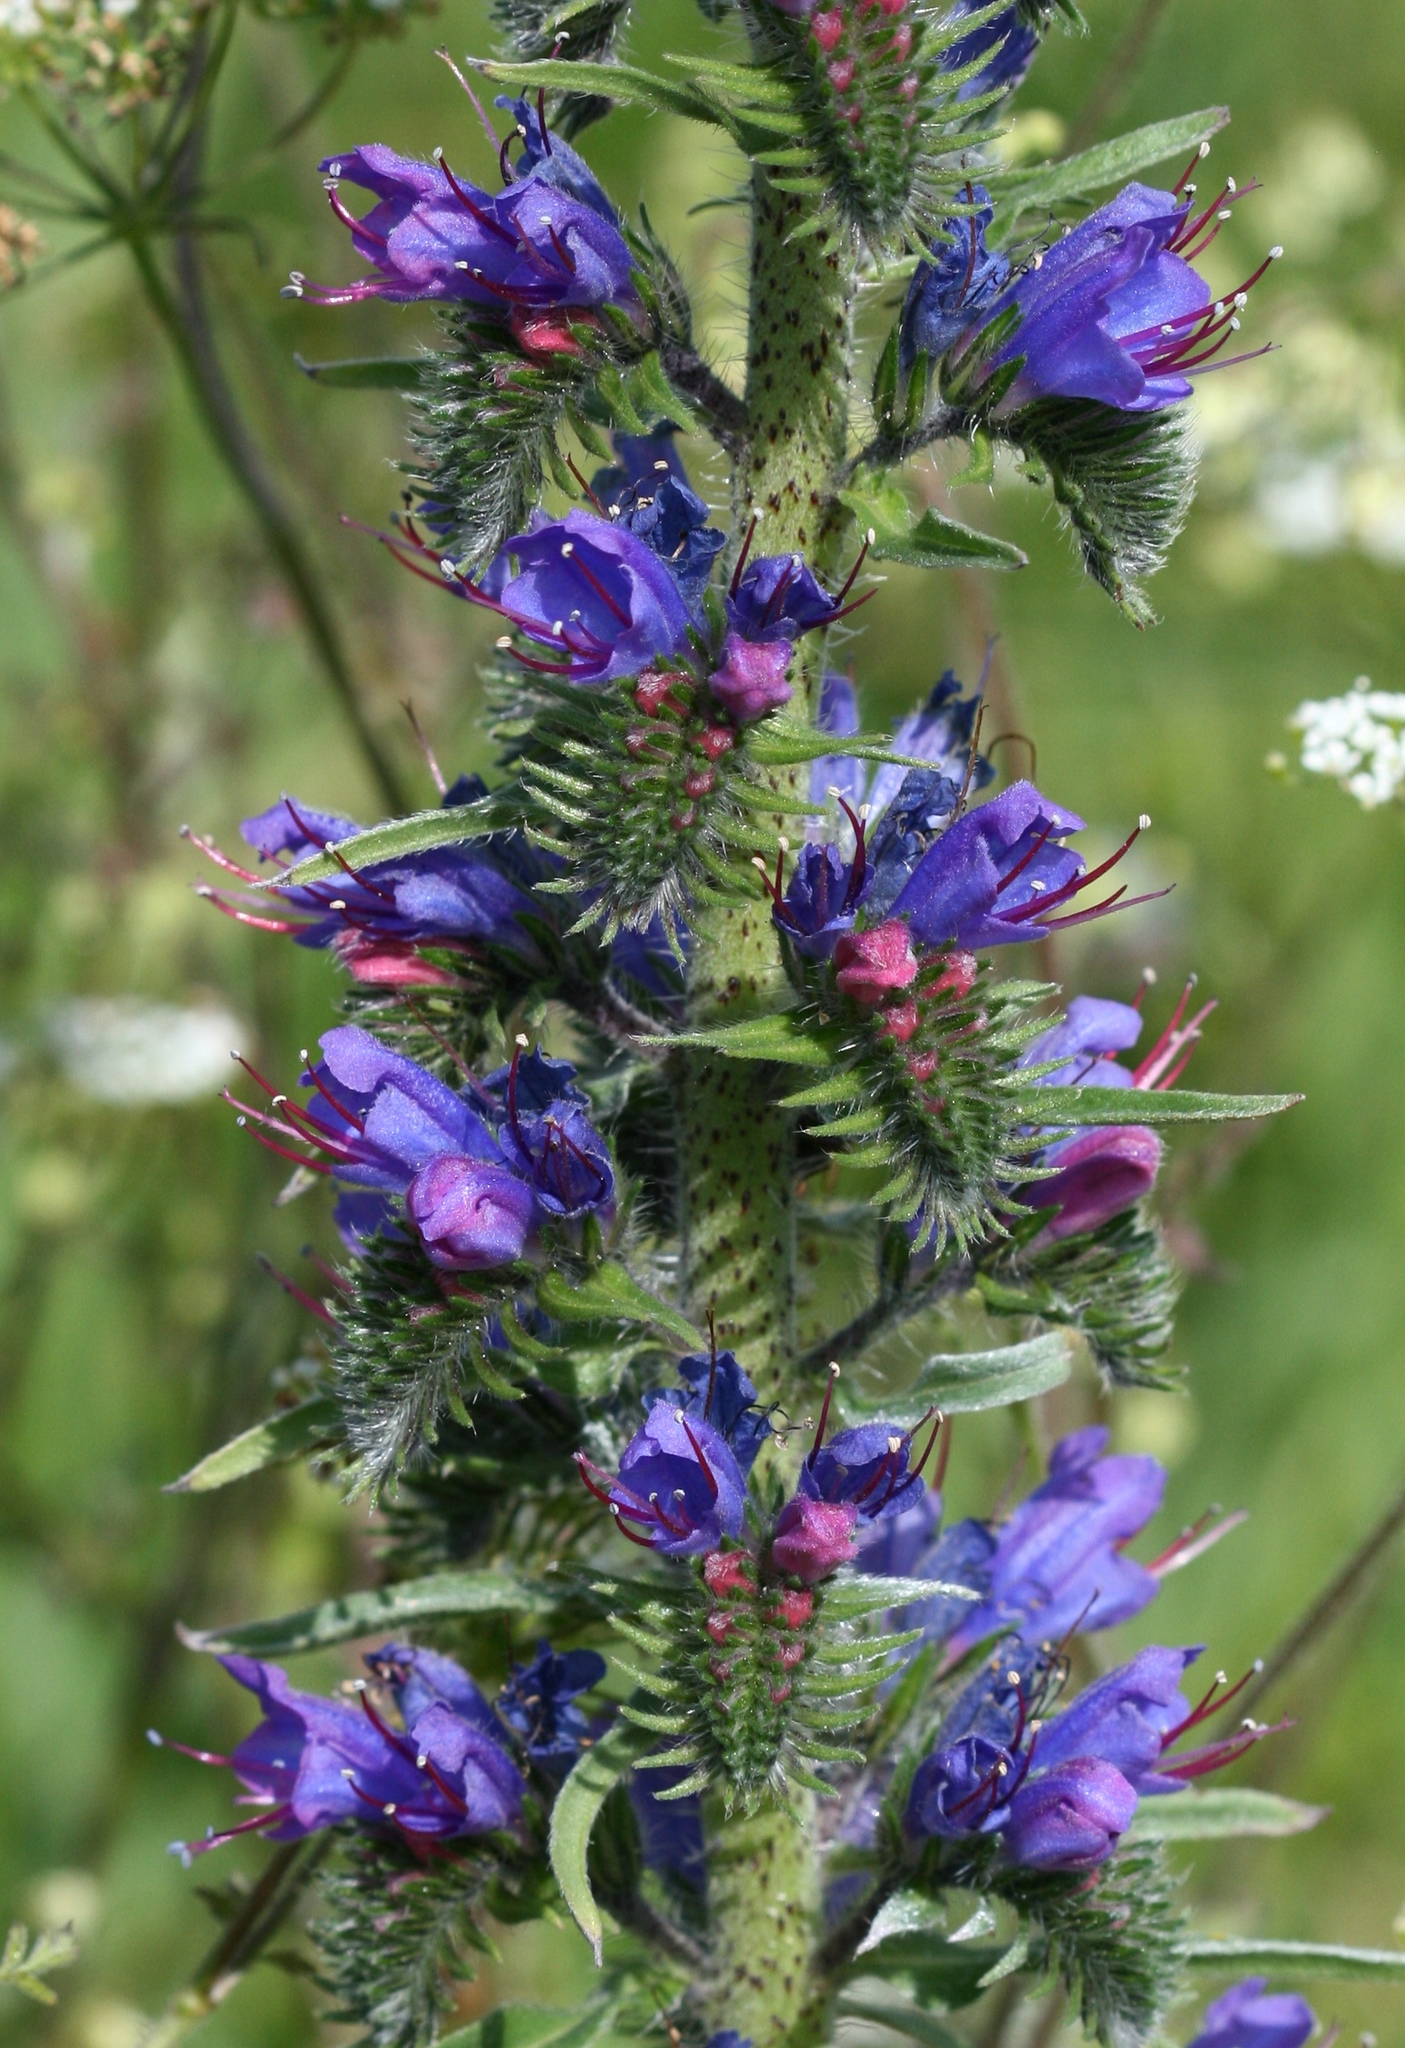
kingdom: Plantae
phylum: Tracheophyta
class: Magnoliopsida
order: Boraginales
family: Boraginaceae
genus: Echium
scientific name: Echium vulgare
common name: Common viper's bugloss
